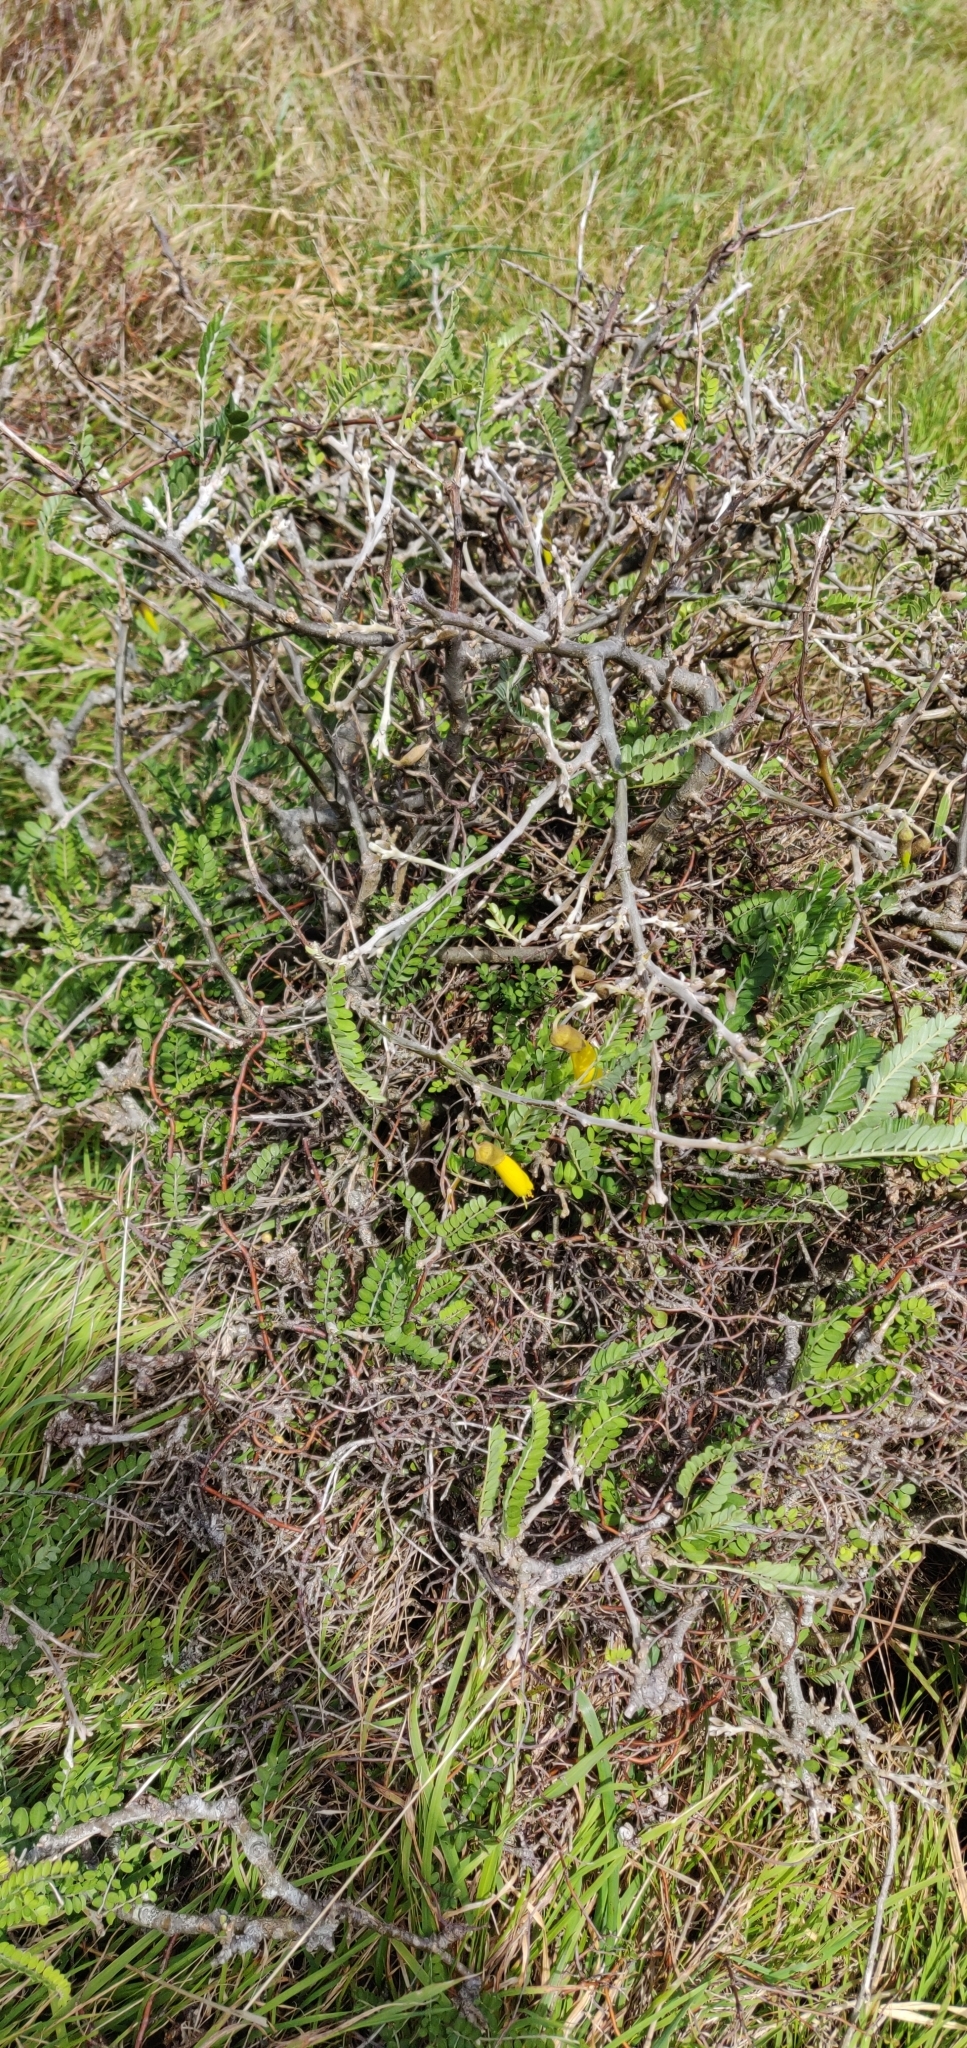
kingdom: Plantae
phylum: Tracheophyta
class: Magnoliopsida
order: Fabales
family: Fabaceae
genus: Sophora
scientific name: Sophora molloyi
